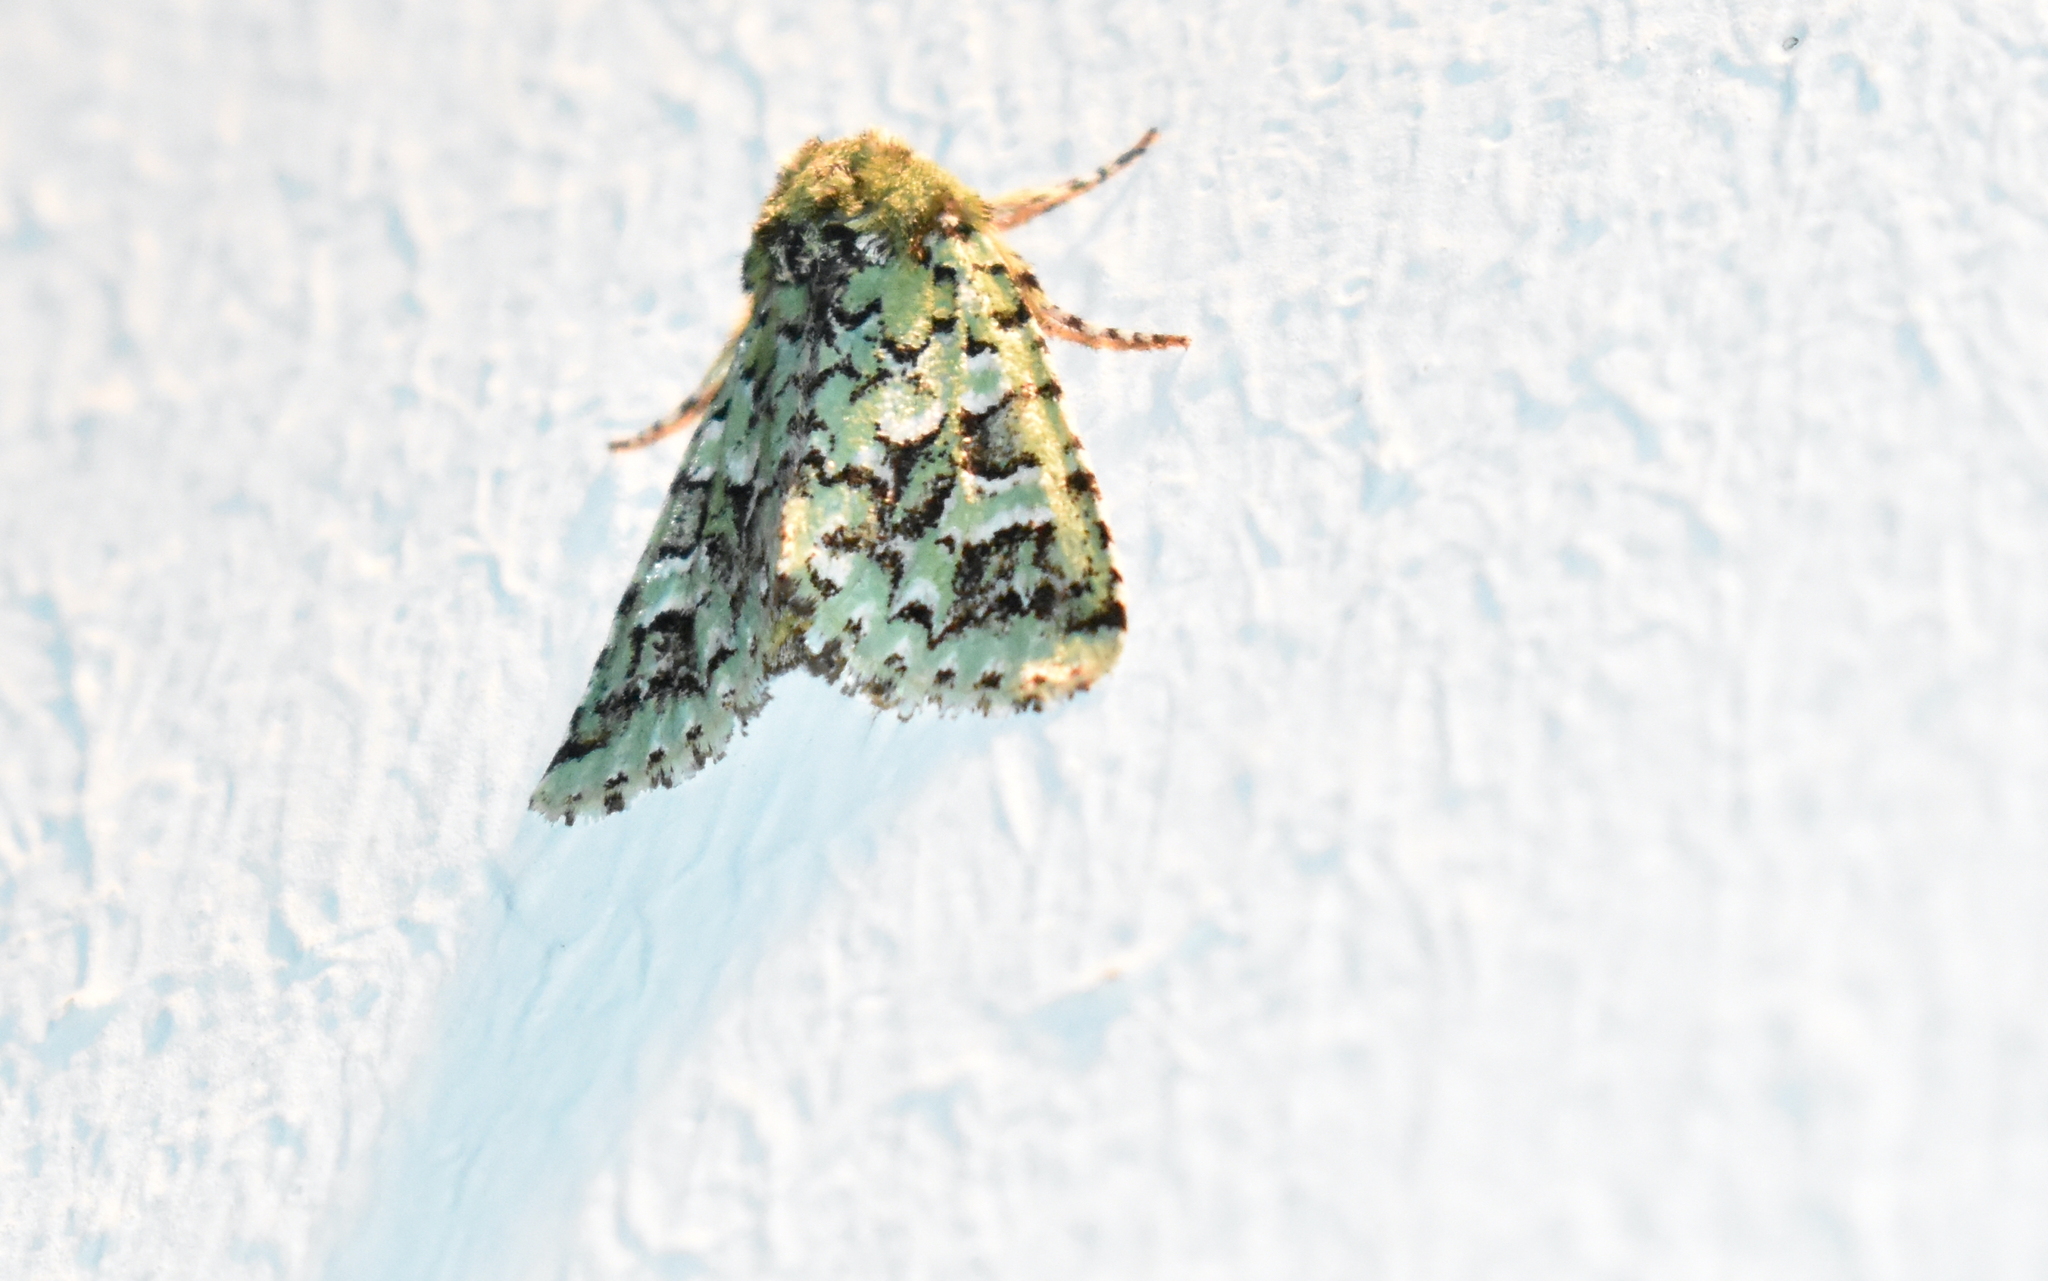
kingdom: Animalia
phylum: Arthropoda
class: Insecta
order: Lepidoptera
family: Noctuidae
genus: Feralia
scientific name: Feralia comstocki
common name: Comstock's sallow
